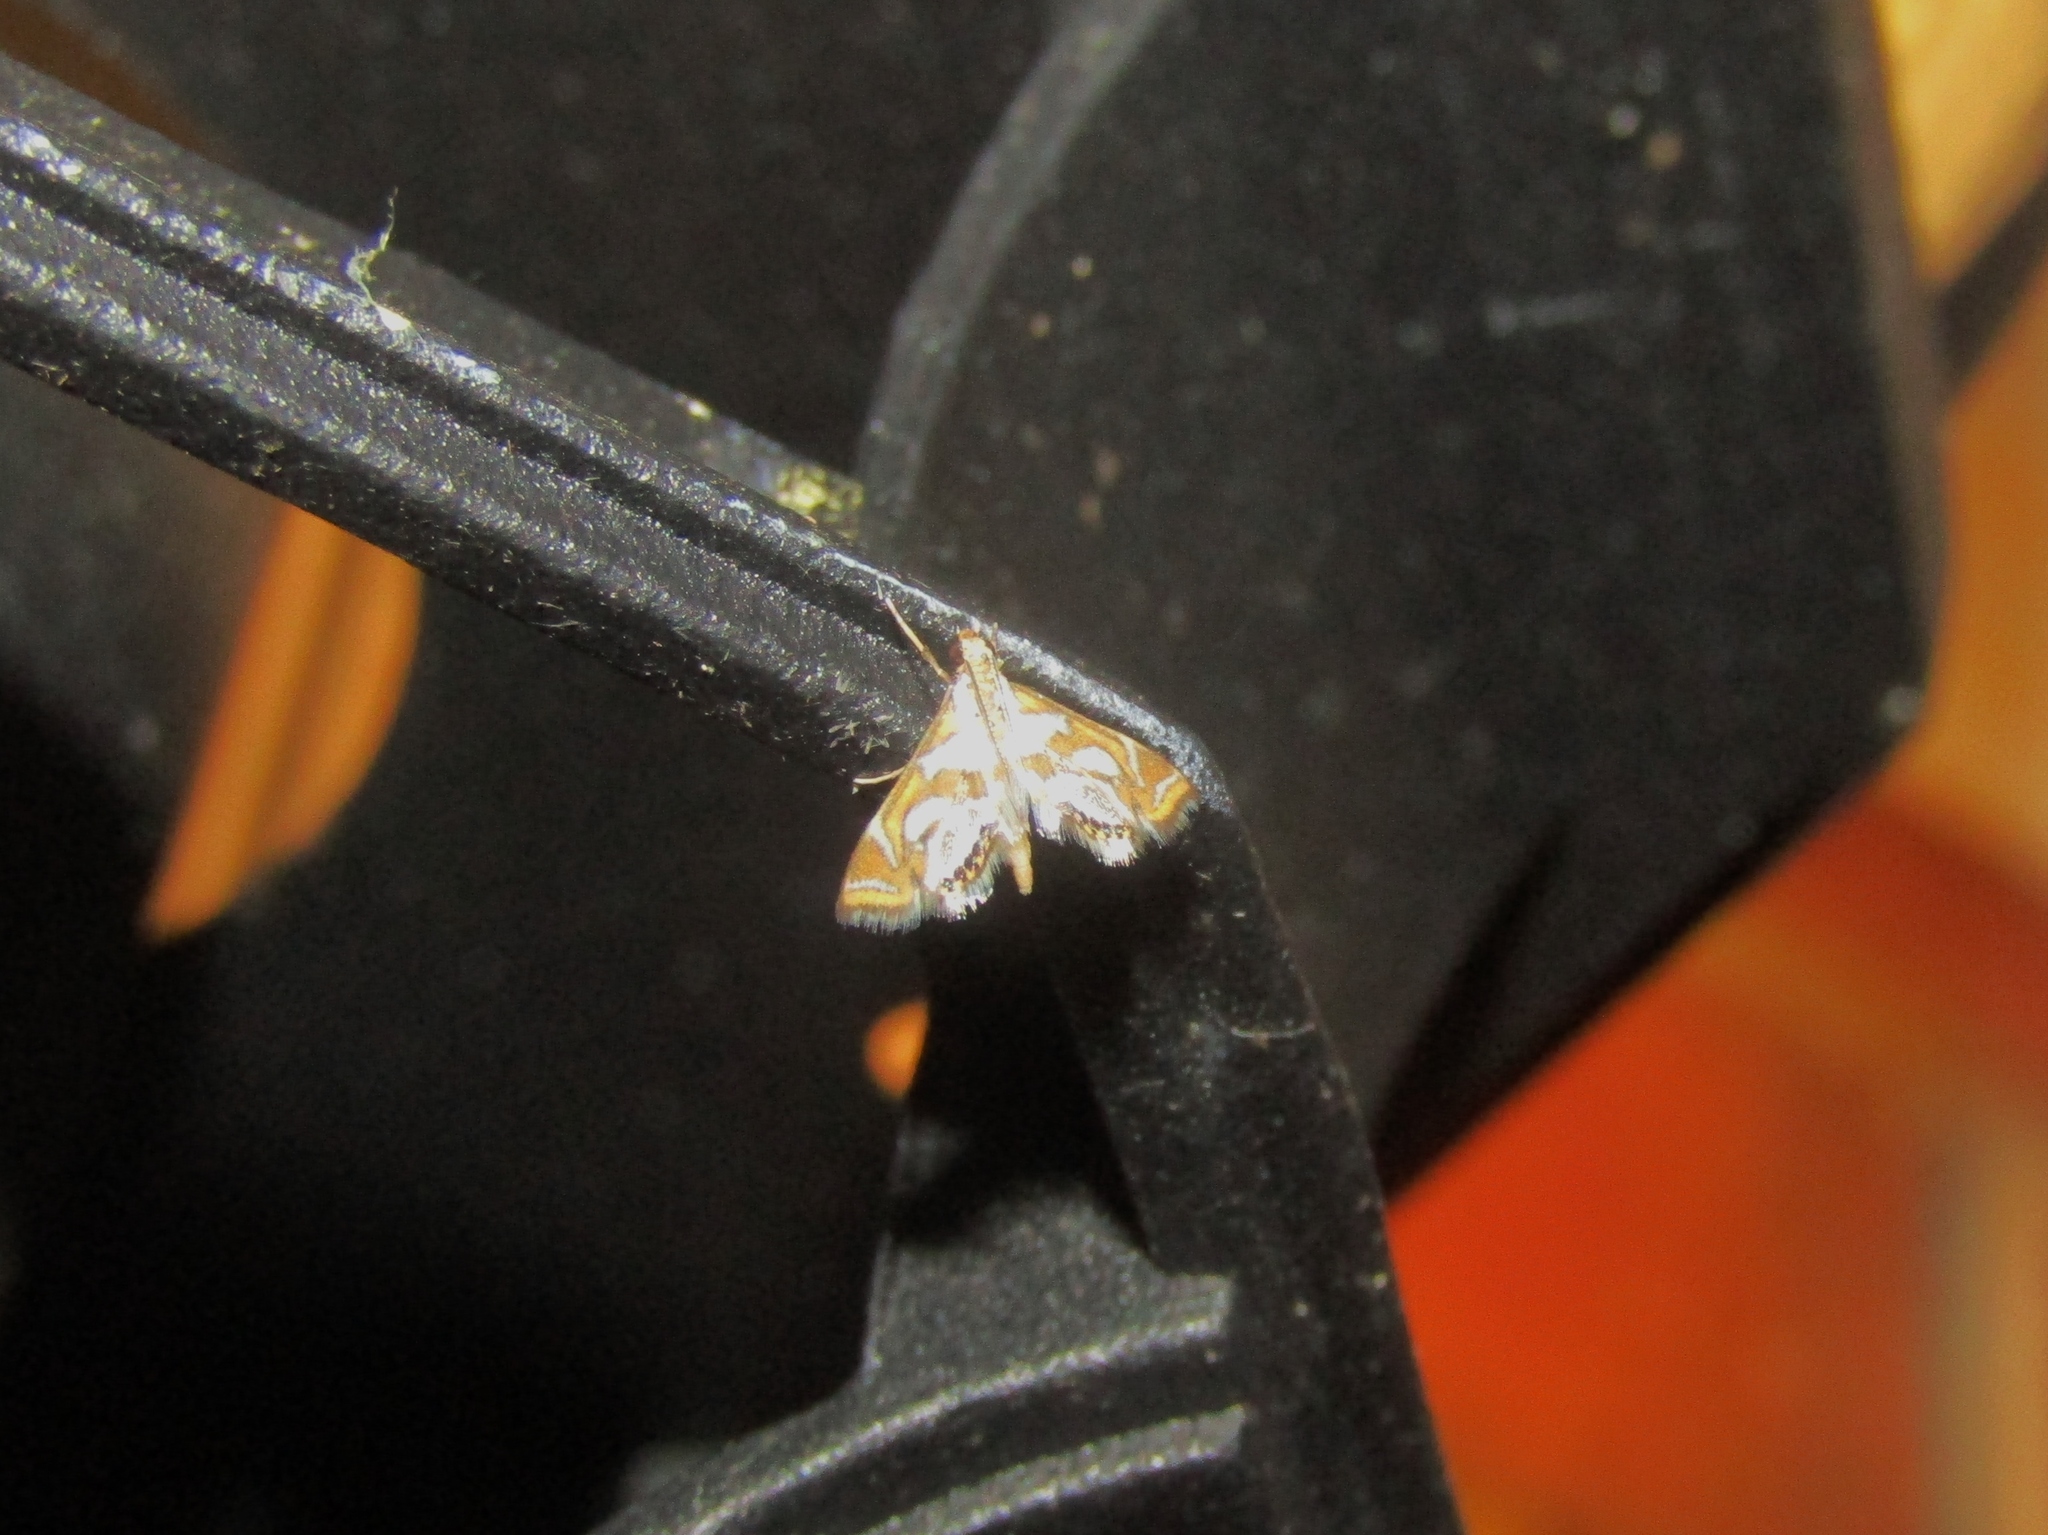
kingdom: Animalia
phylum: Arthropoda
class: Insecta
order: Lepidoptera
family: Crambidae
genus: Chrysendeton
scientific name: Chrysendeton medicinalis
